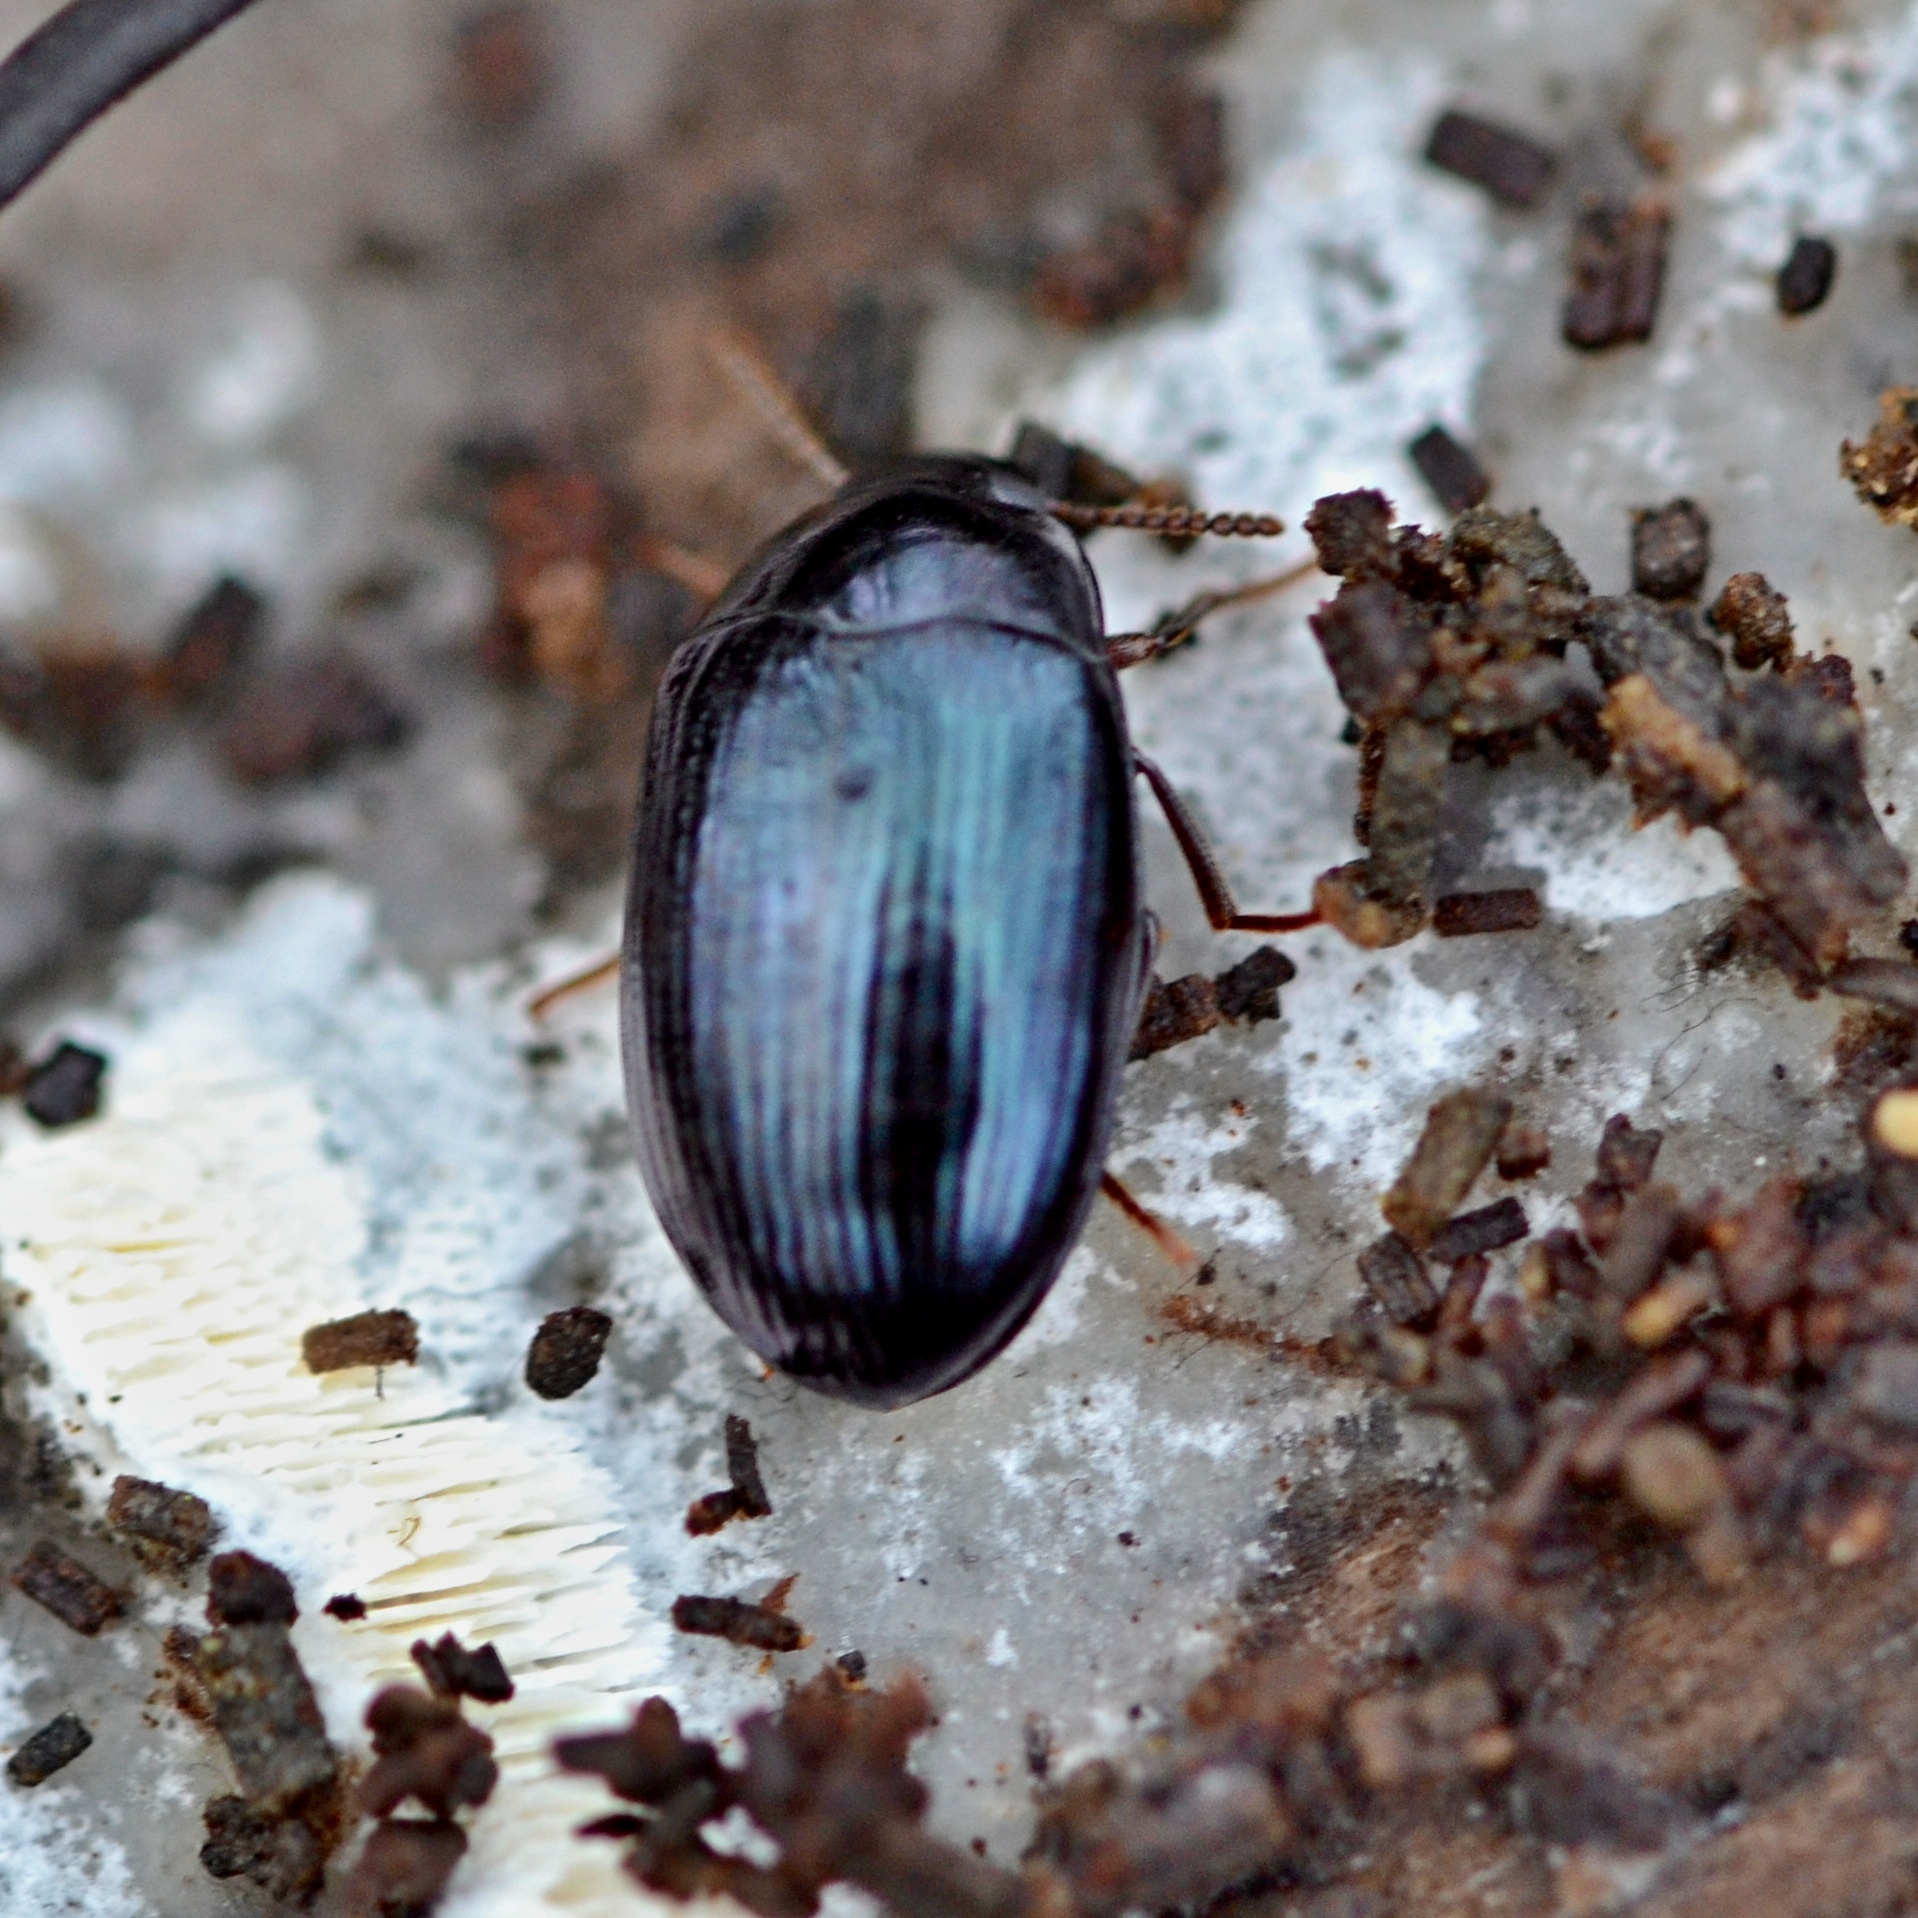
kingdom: Animalia
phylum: Arthropoda
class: Insecta
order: Coleoptera
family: Tenebrionidae
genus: Platydema
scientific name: Platydema violaceum
